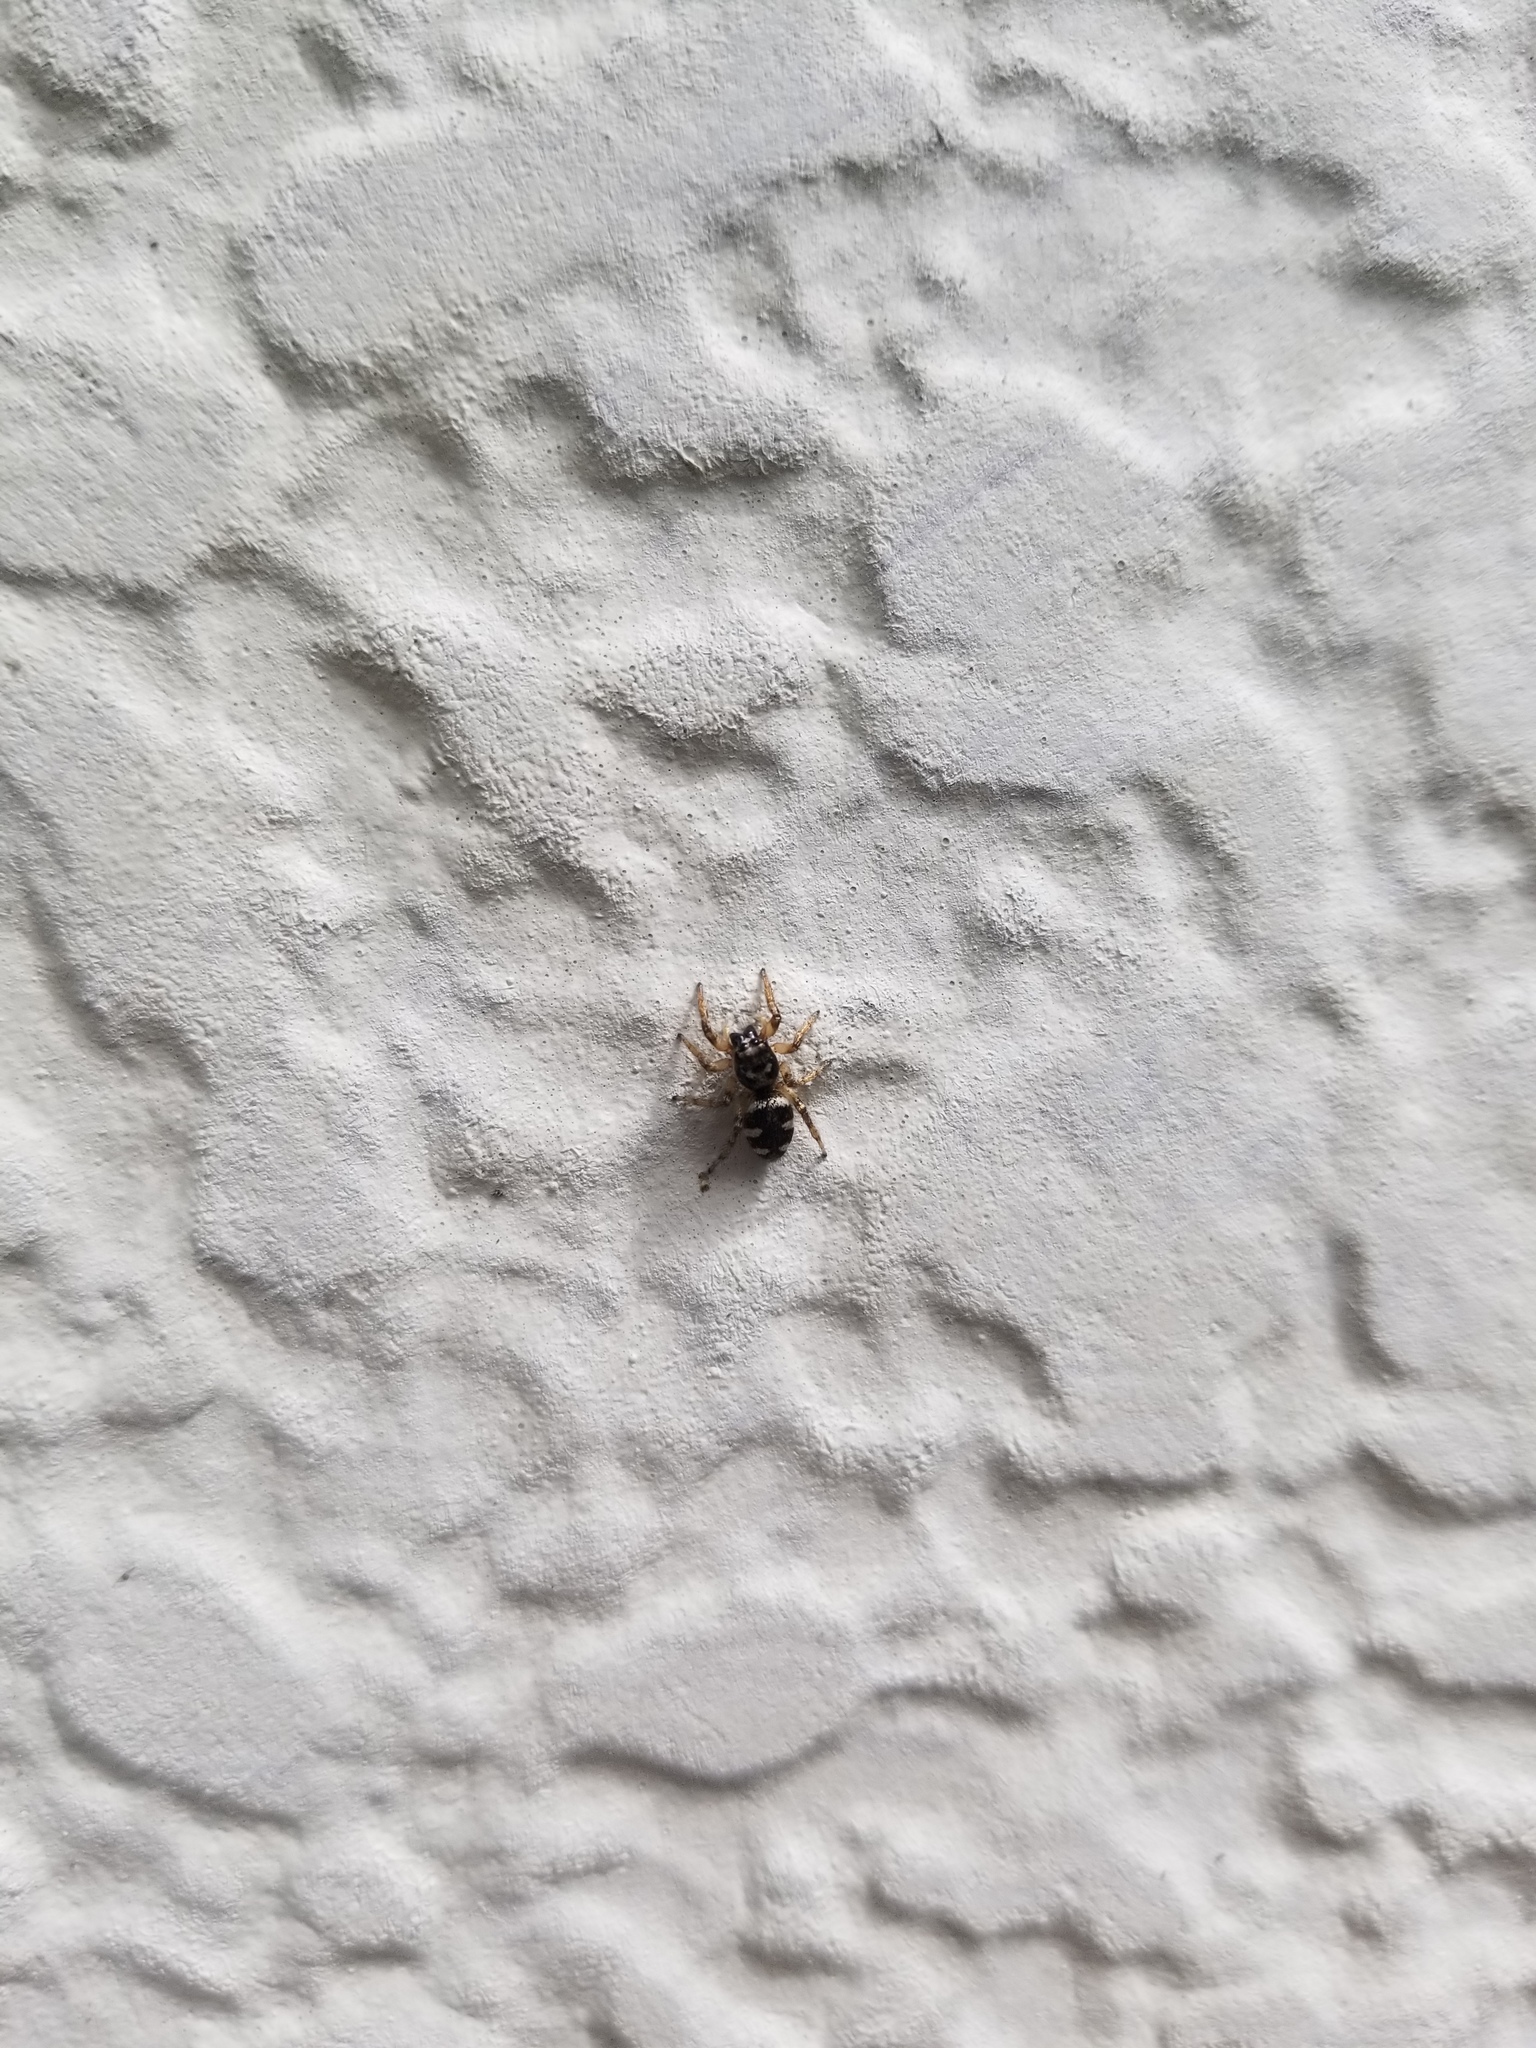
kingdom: Animalia
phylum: Arthropoda
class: Arachnida
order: Araneae
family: Salticidae
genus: Salticus
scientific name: Salticus scenicus
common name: Zebra jumper
